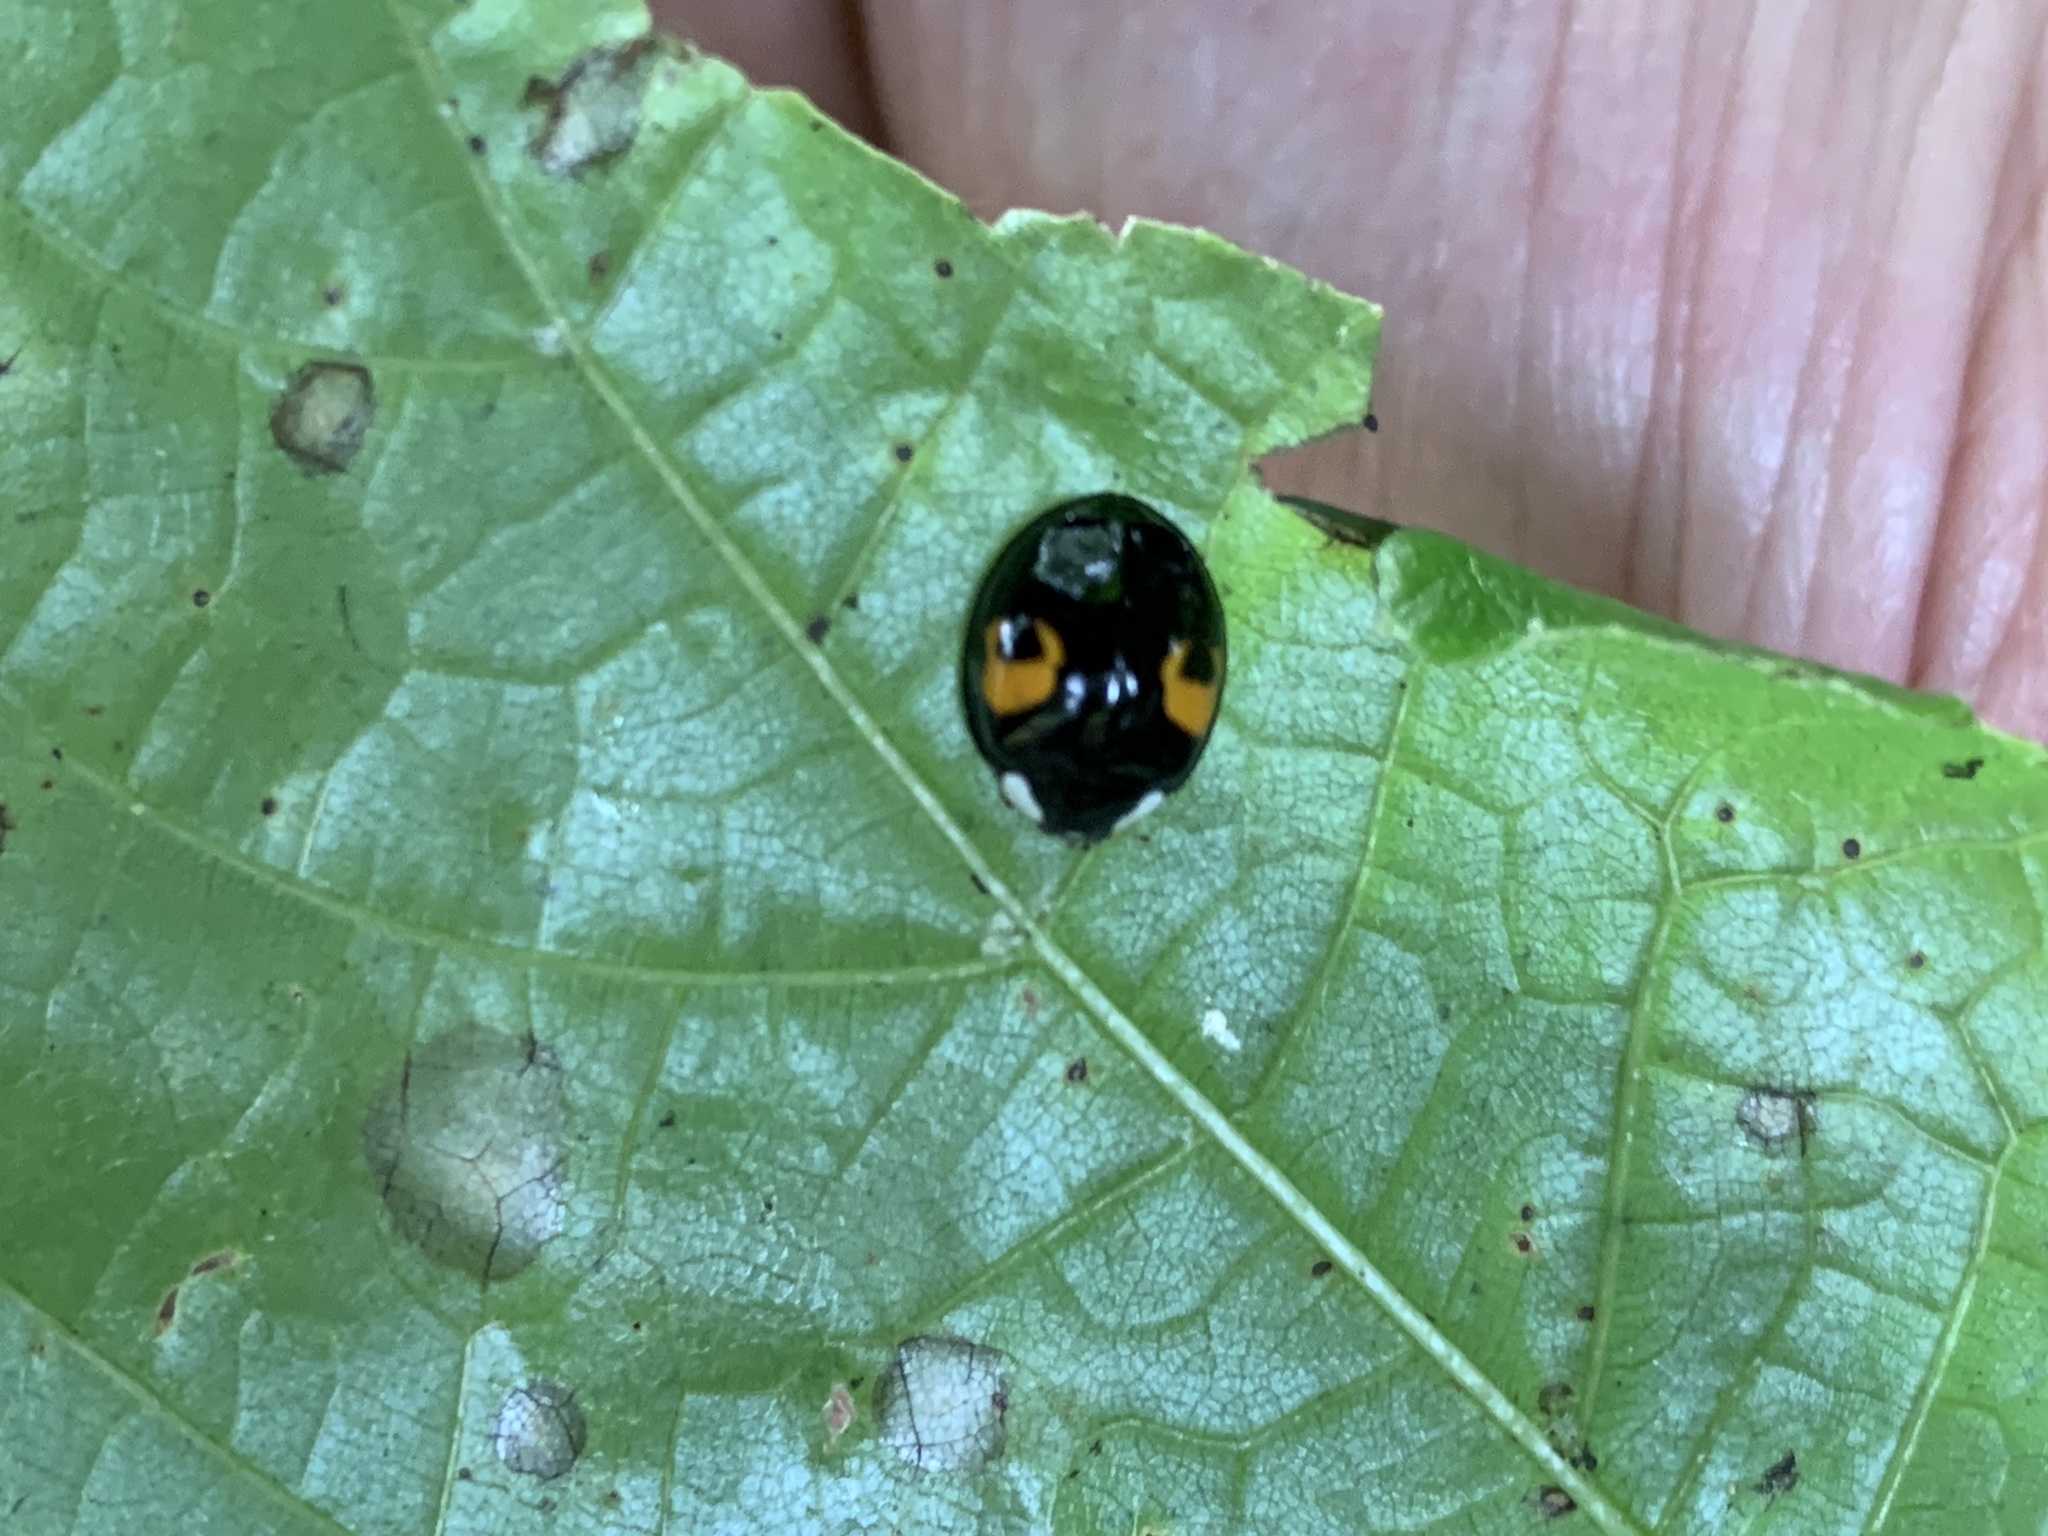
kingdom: Animalia
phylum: Arthropoda
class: Insecta
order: Coleoptera
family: Coccinellidae
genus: Harmonia
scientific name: Harmonia axyridis
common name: Harlequin ladybird
